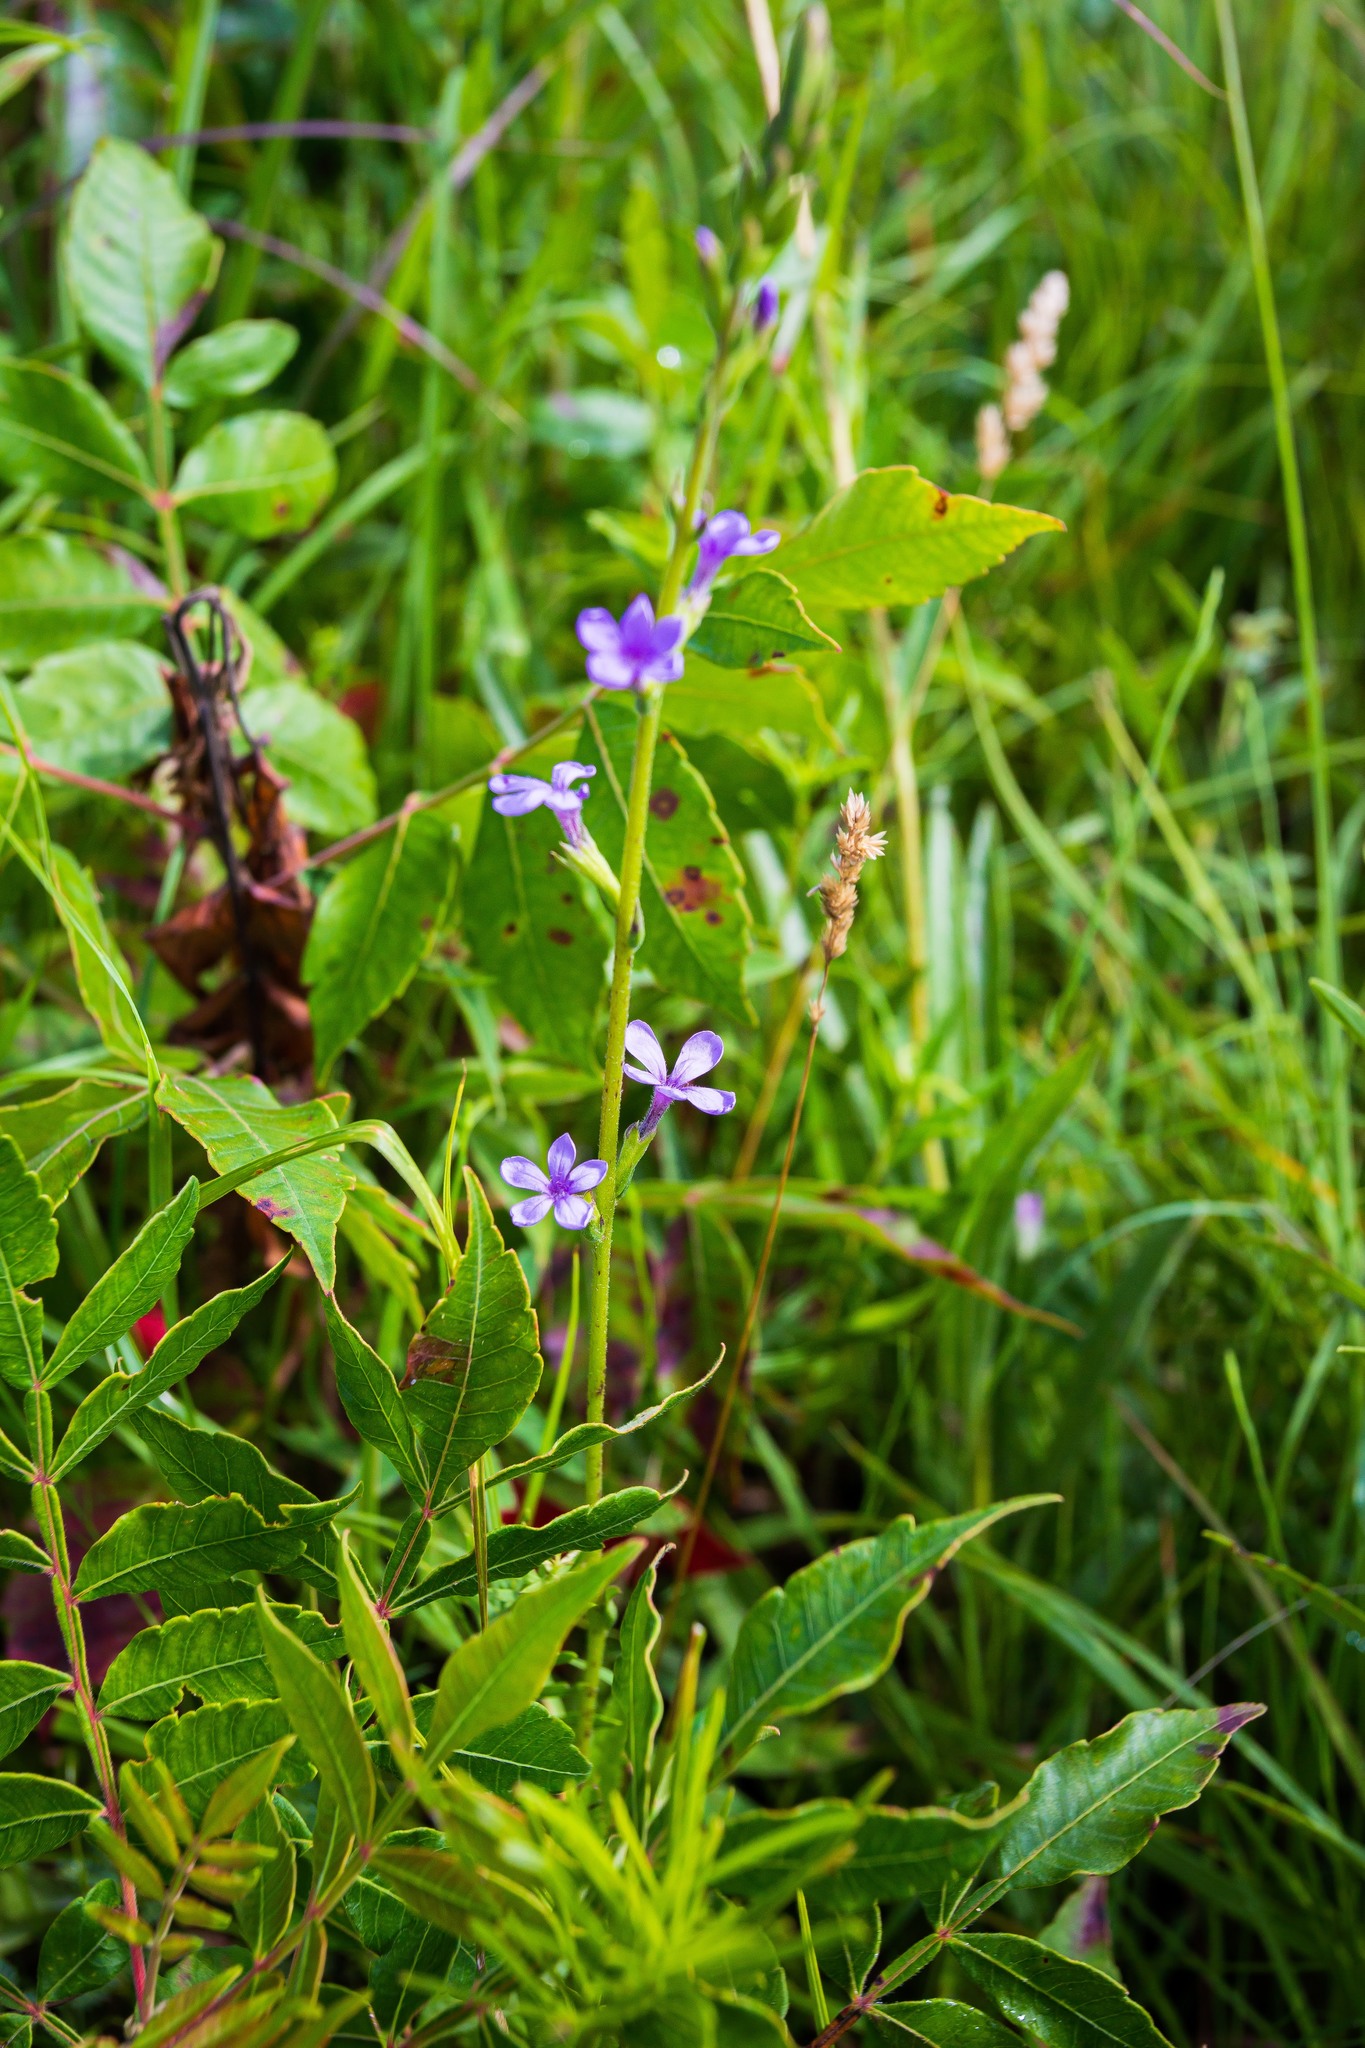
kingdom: Plantae
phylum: Tracheophyta
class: Magnoliopsida
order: Lamiales
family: Orobanchaceae
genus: Buchnera
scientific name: Buchnera americana
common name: American bluehearts
